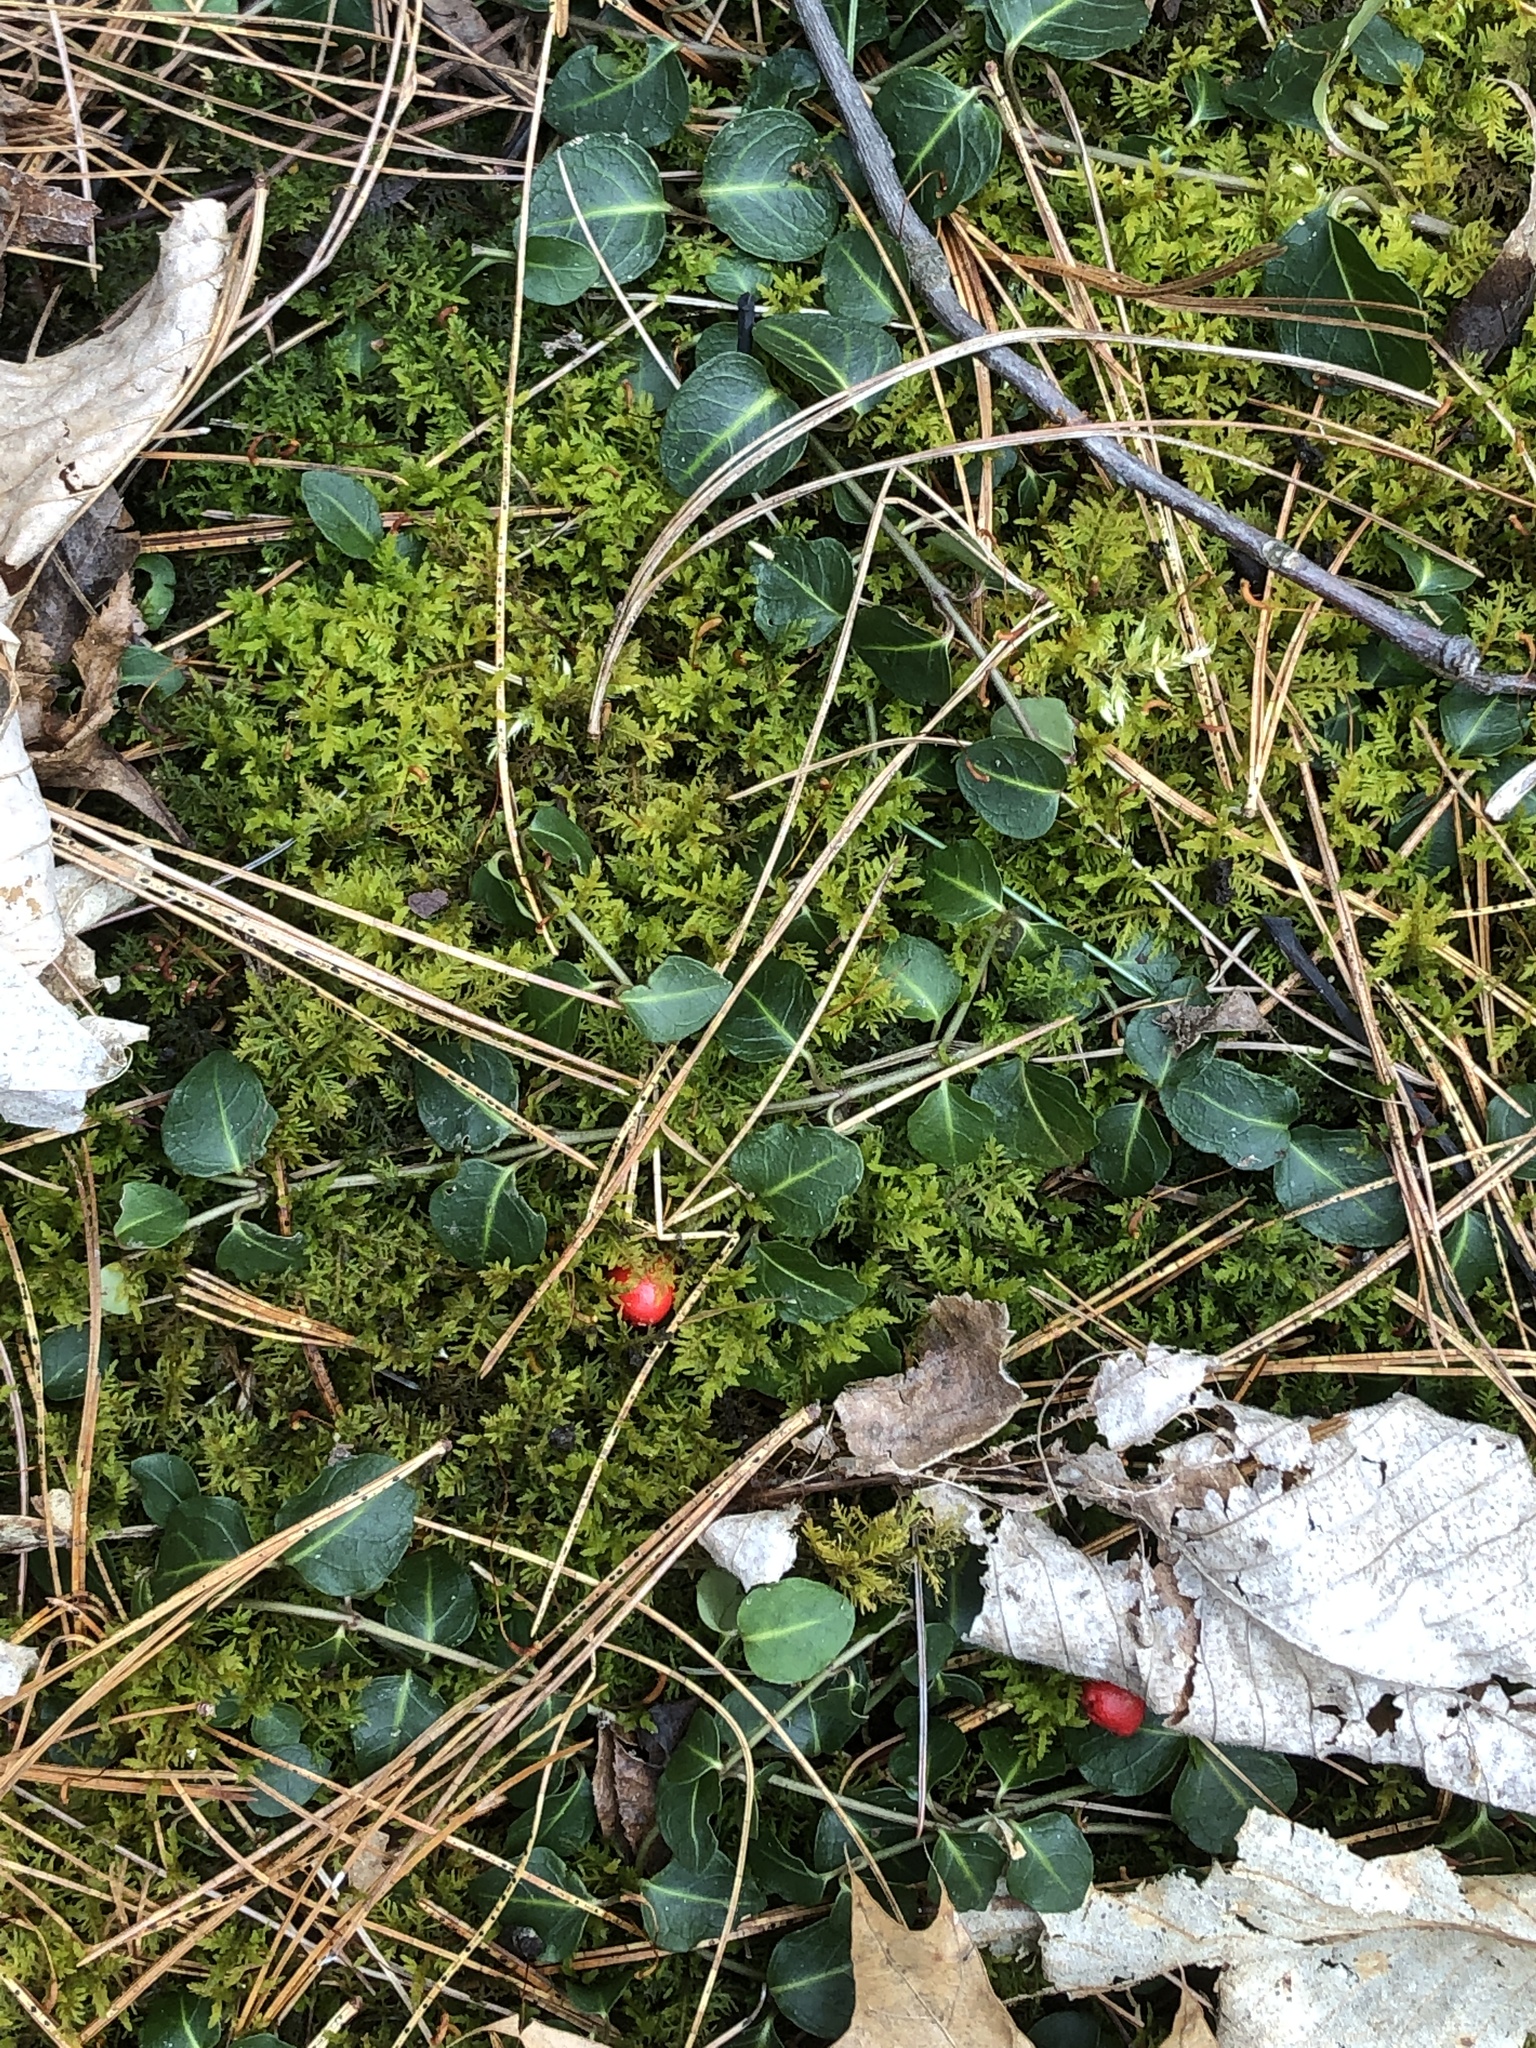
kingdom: Plantae
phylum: Tracheophyta
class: Magnoliopsida
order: Gentianales
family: Rubiaceae
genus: Mitchella
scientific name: Mitchella repens
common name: Partridge-berry
